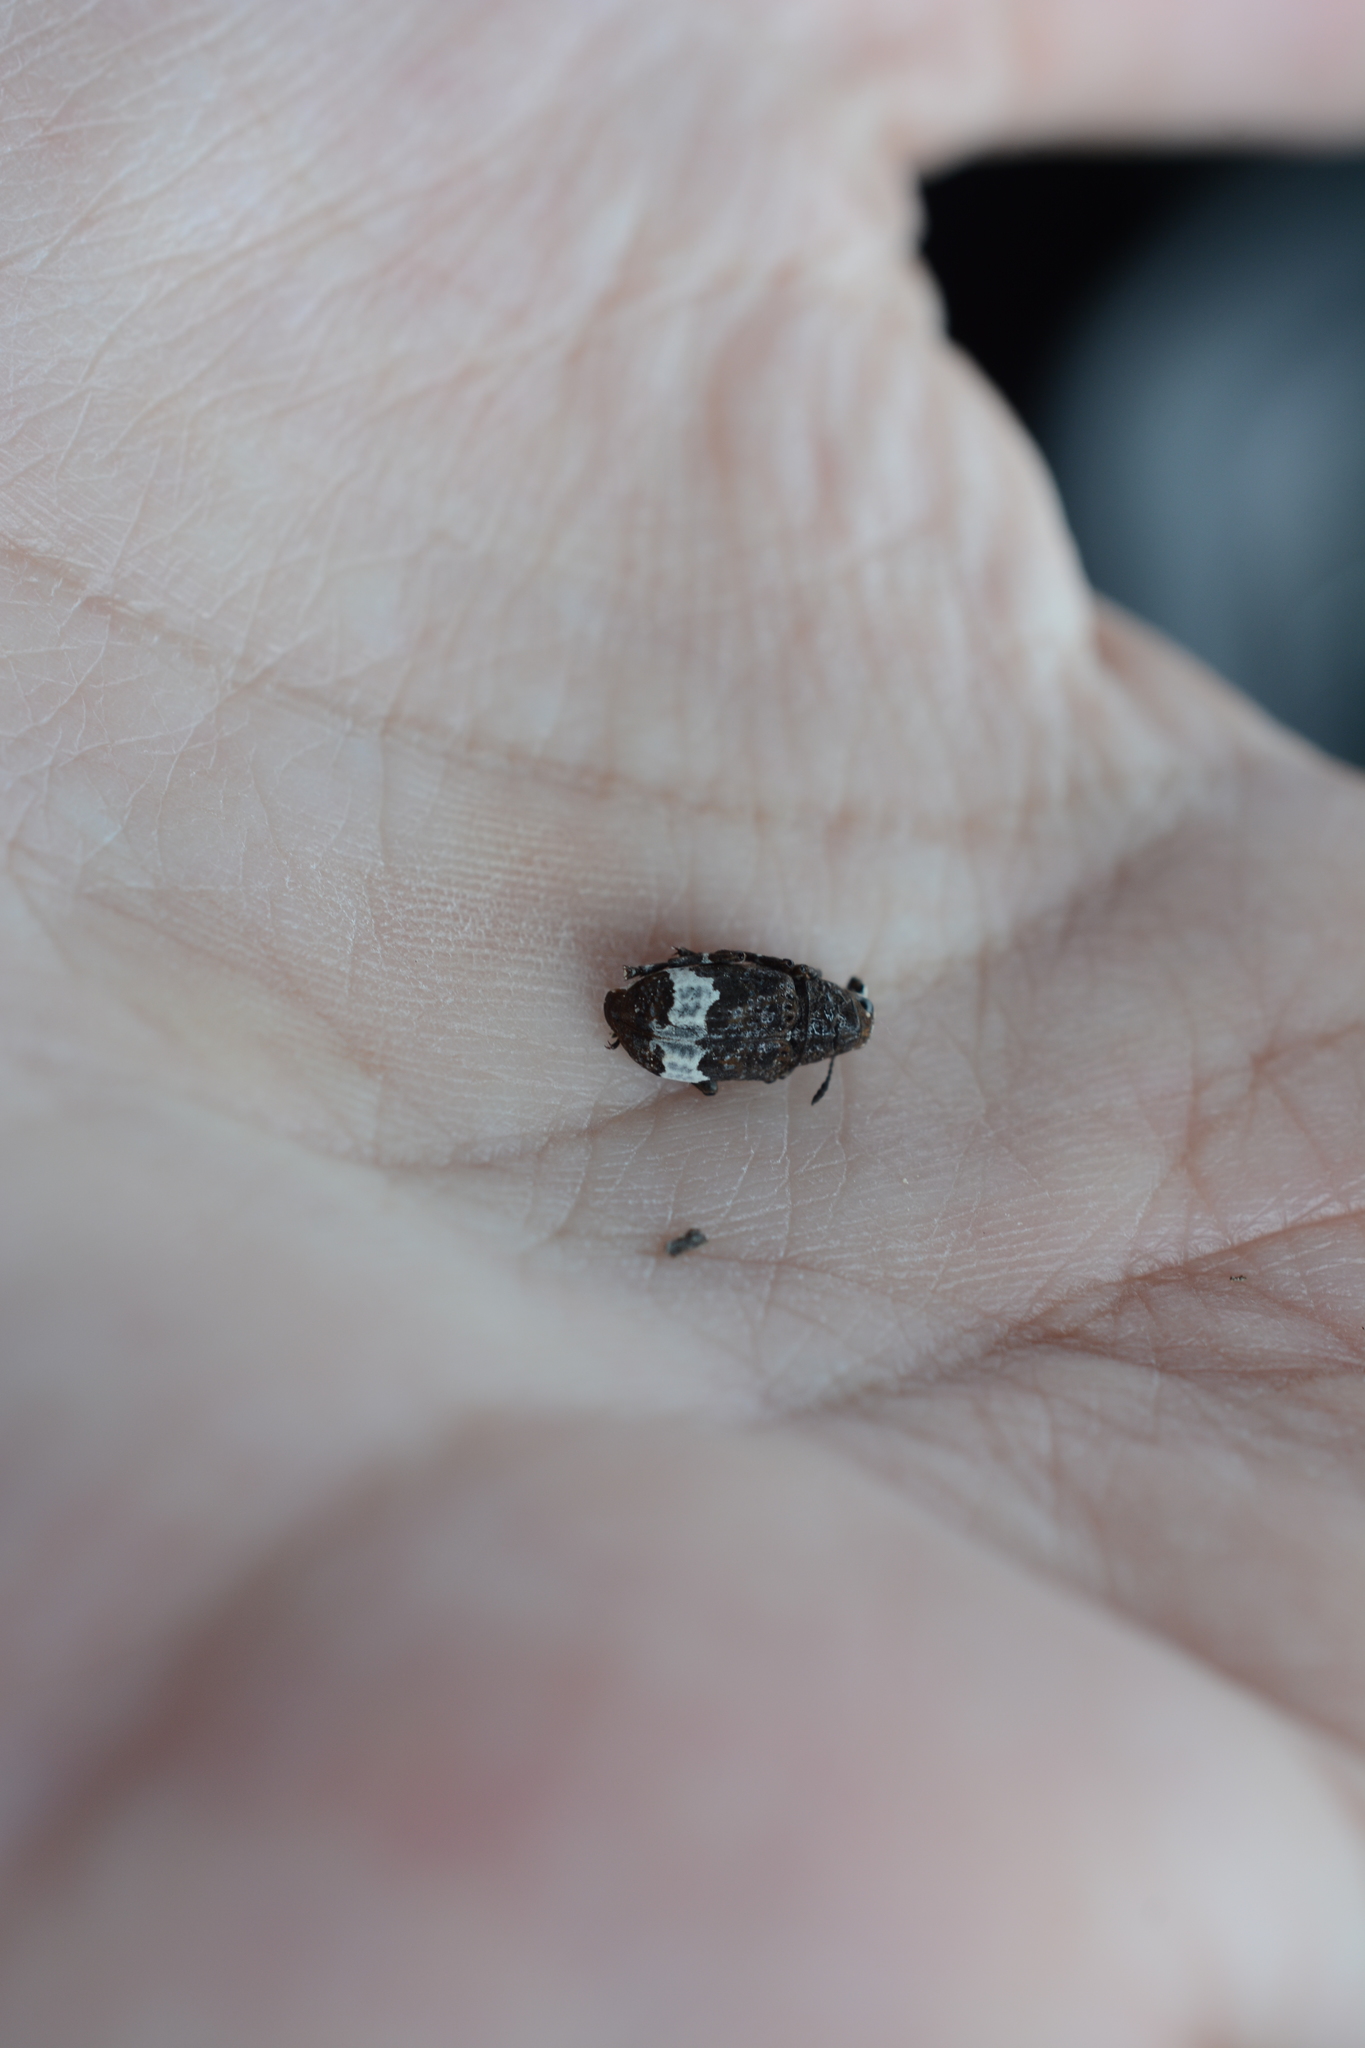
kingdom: Animalia
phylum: Arthropoda
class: Insecta
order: Coleoptera
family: Anthribidae
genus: Eurymycter
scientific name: Eurymycter fasciatus
